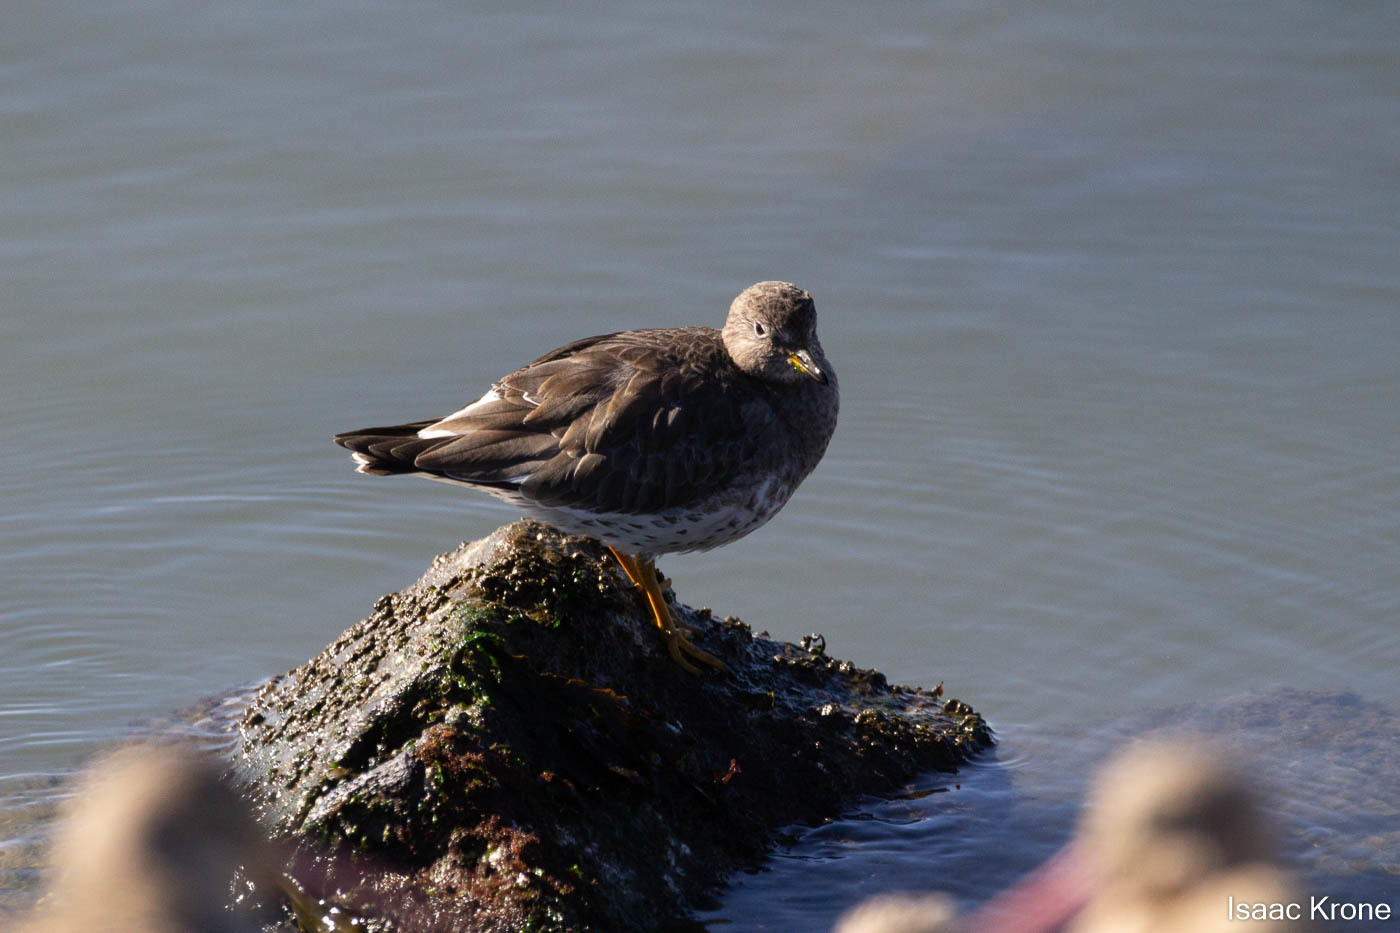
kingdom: Animalia
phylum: Chordata
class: Aves
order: Charadriiformes
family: Scolopacidae
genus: Calidris
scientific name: Calidris virgata
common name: Surfbird
